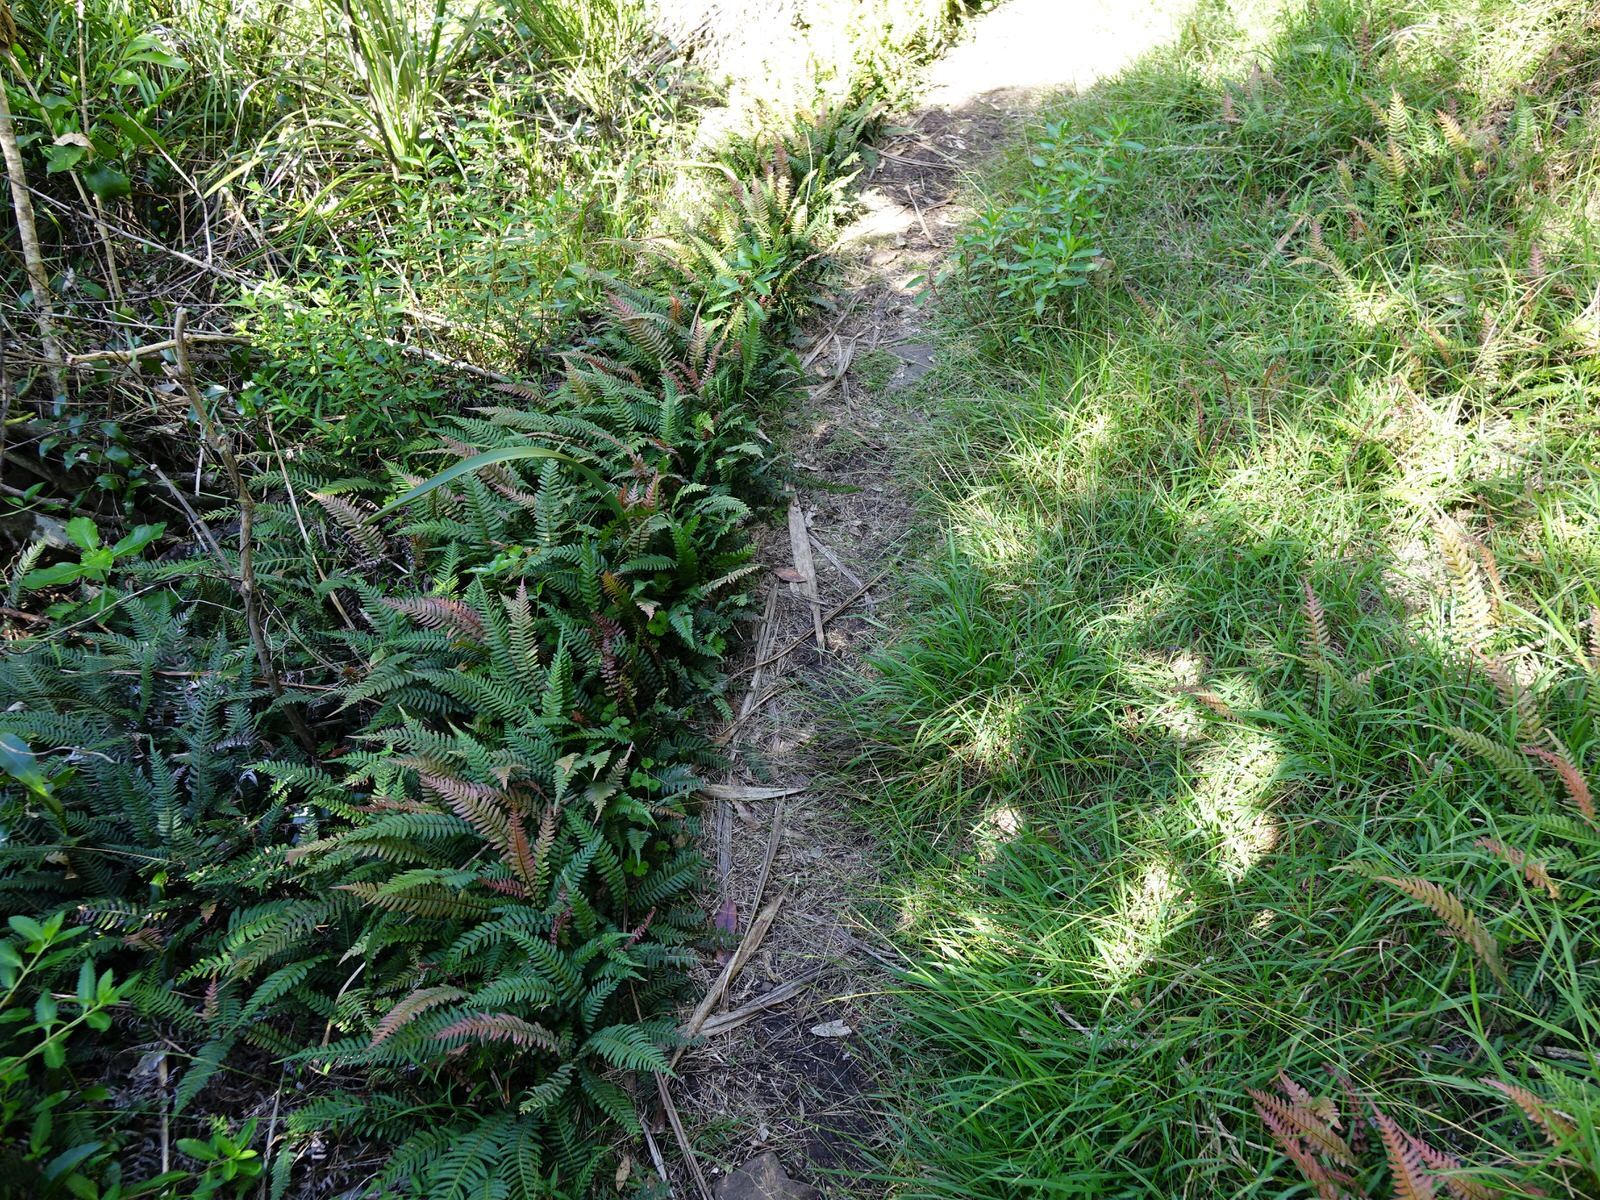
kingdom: Plantae
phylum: Tracheophyta
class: Polypodiopsida
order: Polypodiales
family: Blechnaceae
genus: Doodia
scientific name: Doodia australis
